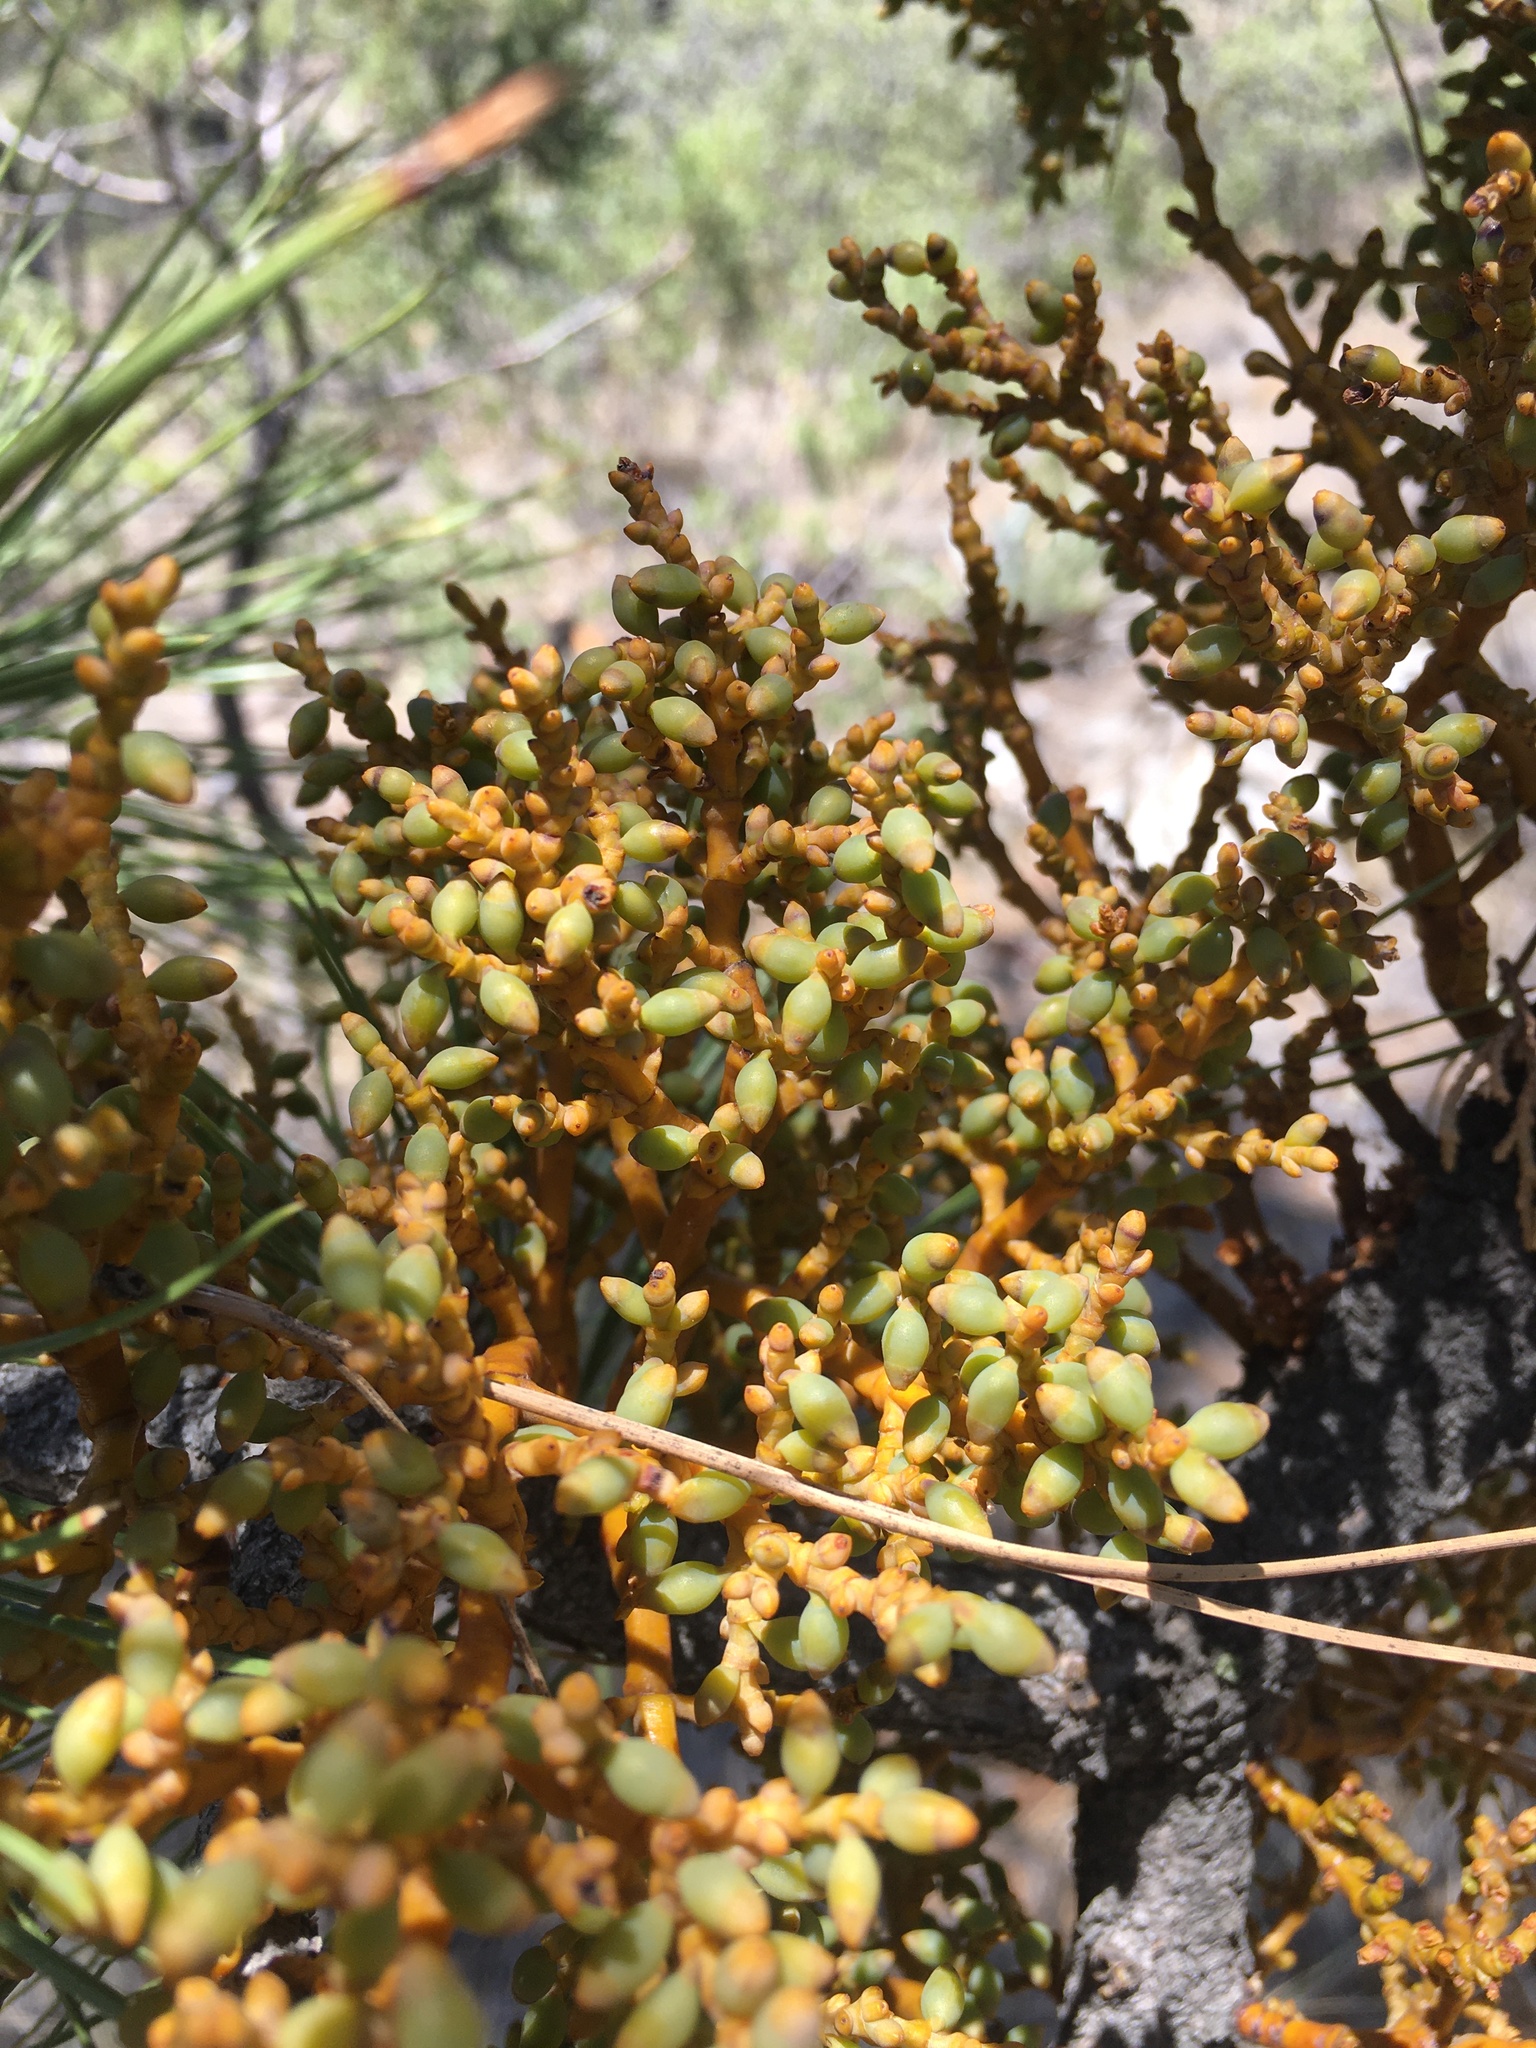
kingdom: Plantae
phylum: Tracheophyta
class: Magnoliopsida
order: Santalales
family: Viscaceae
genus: Arceuthobium
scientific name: Arceuthobium vaginatum
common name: Southwestern dwarf-mistletoe
